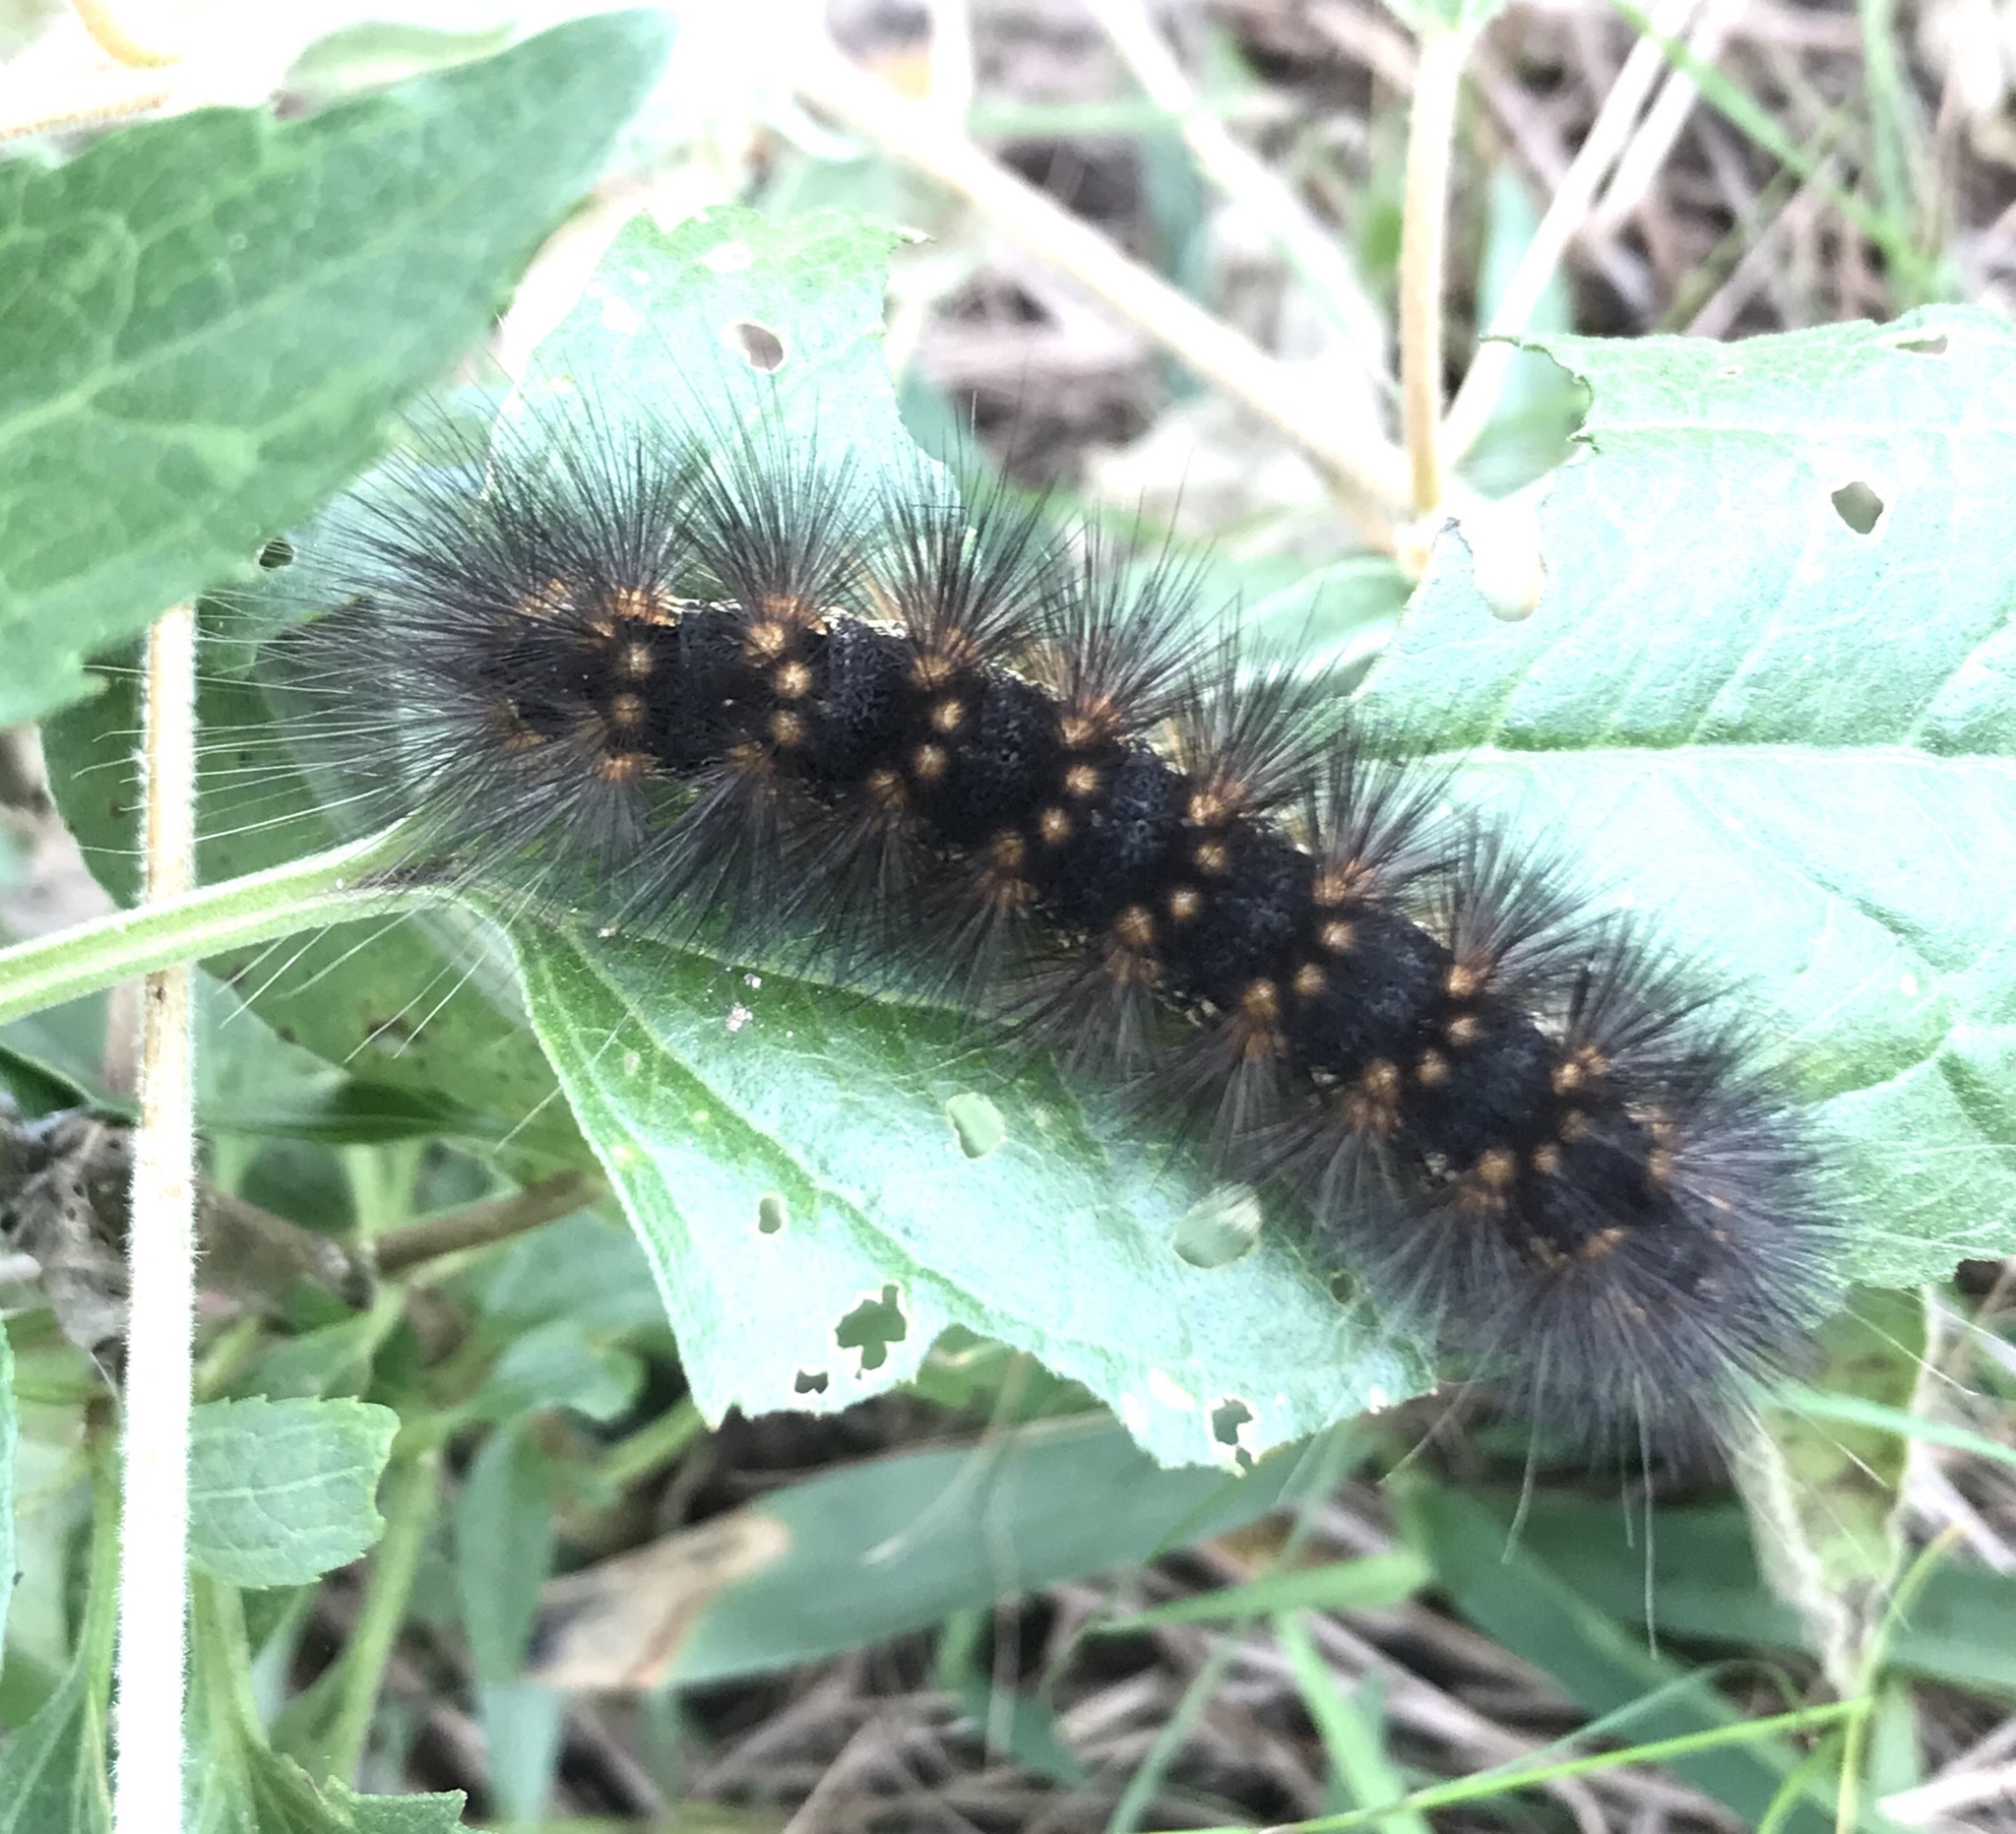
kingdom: Animalia
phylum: Arthropoda
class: Insecta
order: Lepidoptera
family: Erebidae
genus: Estigmene
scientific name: Estigmene acrea
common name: Salt marsh moth
